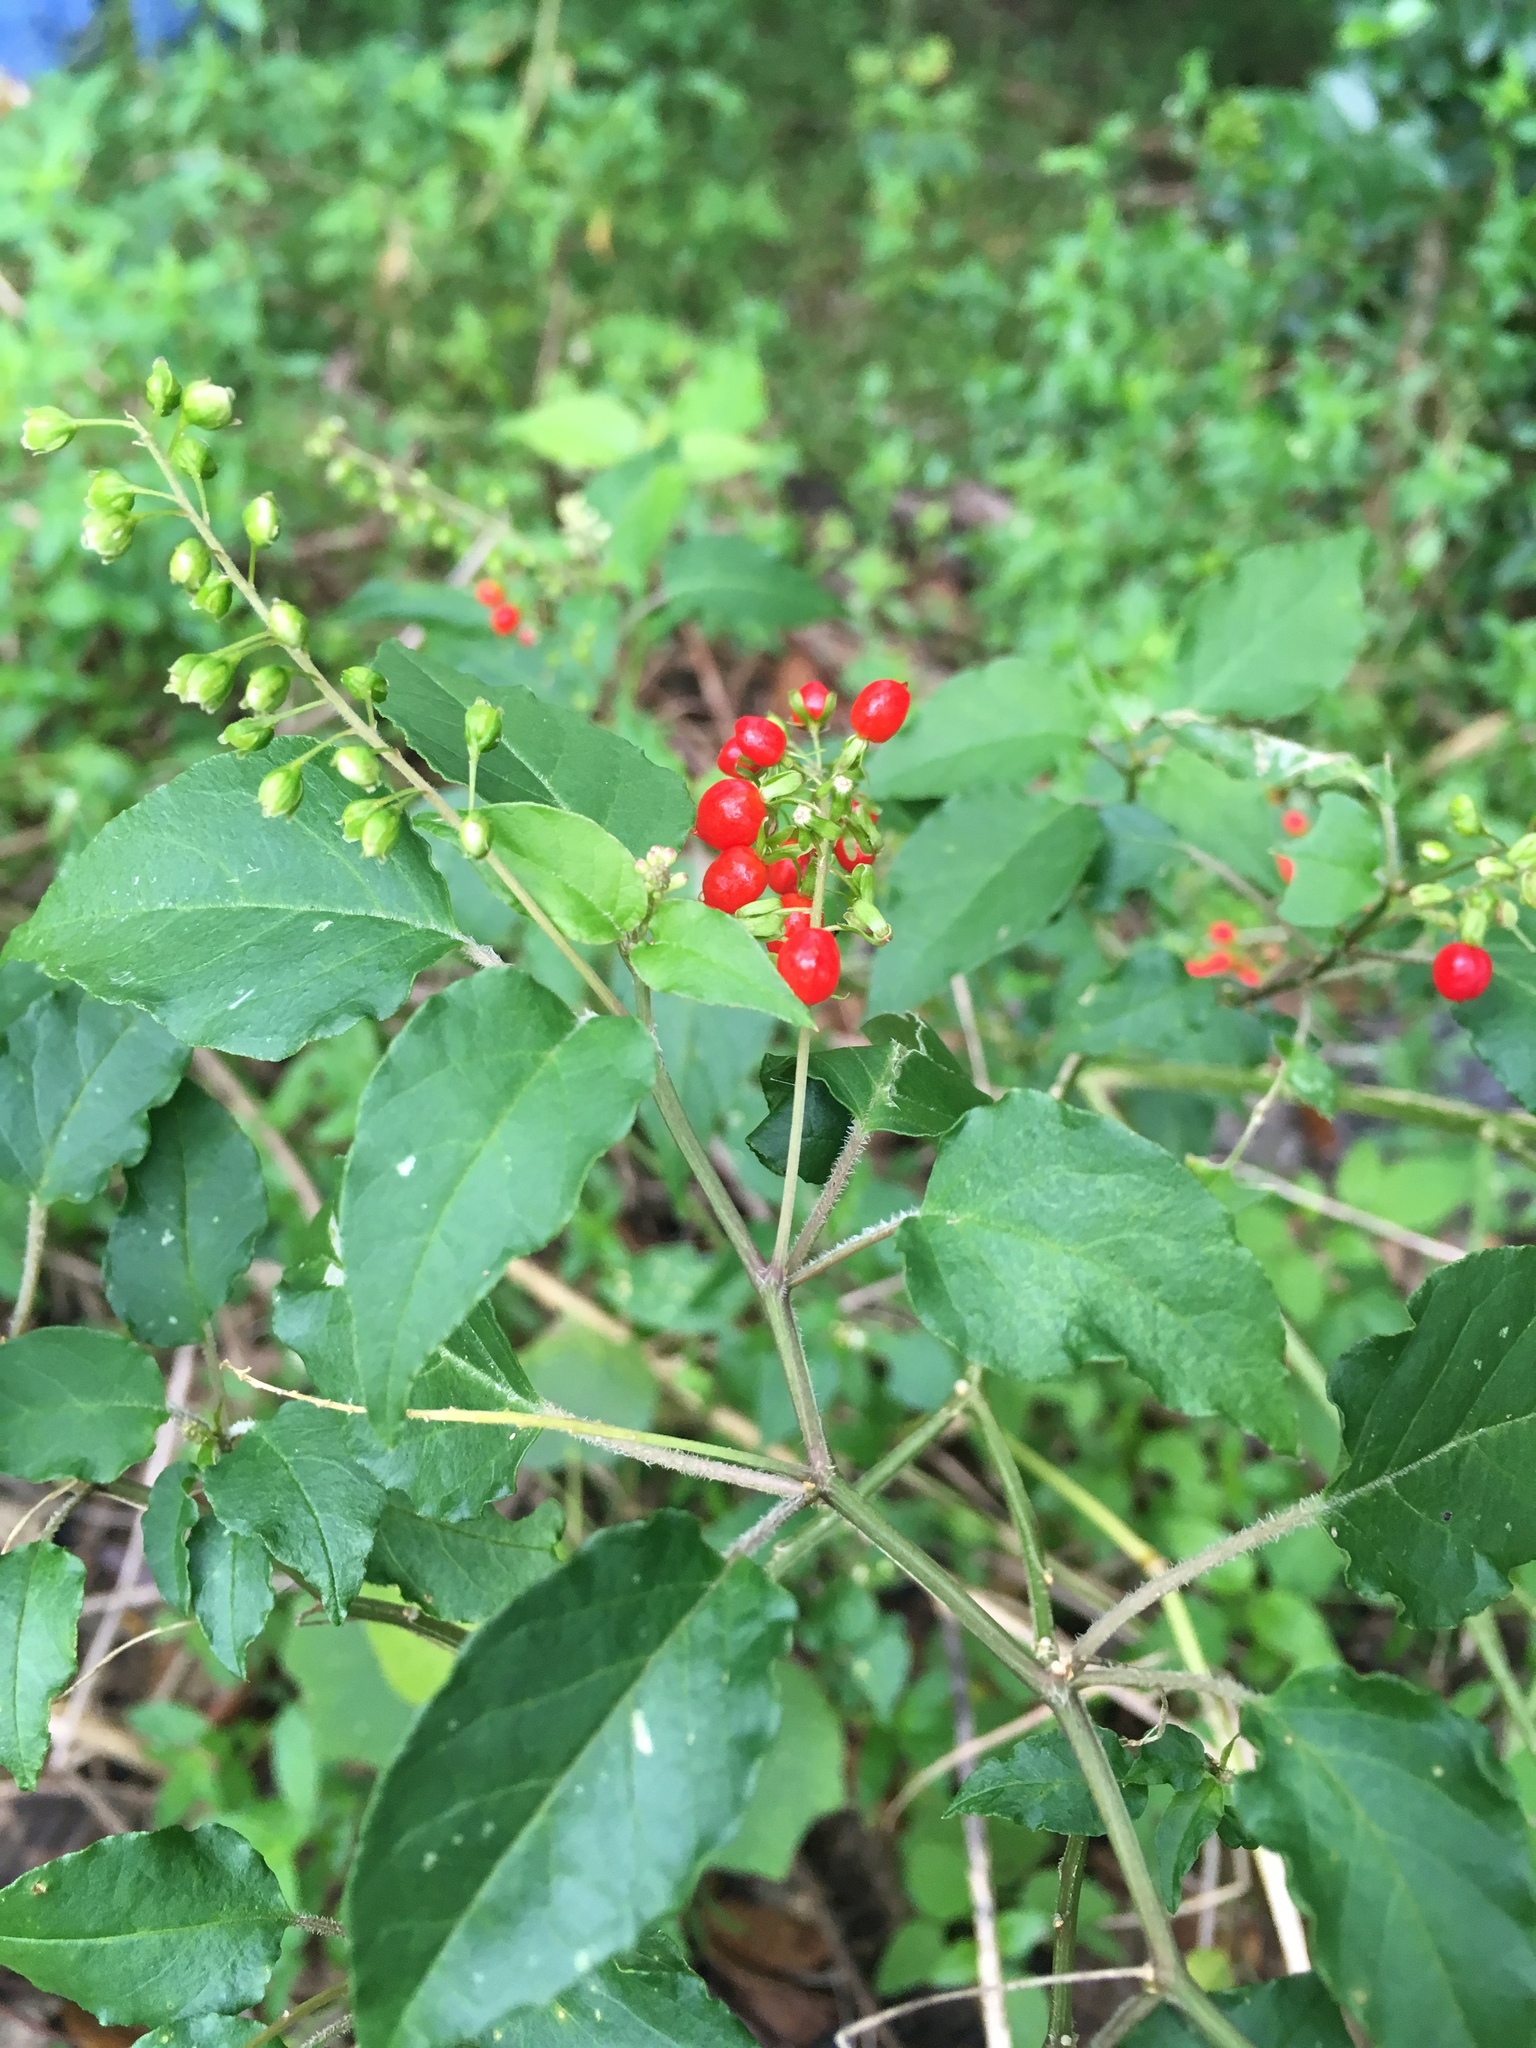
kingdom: Plantae
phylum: Tracheophyta
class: Magnoliopsida
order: Caryophyllales
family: Phytolaccaceae
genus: Rivina
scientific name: Rivina humilis
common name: Rougeplant
